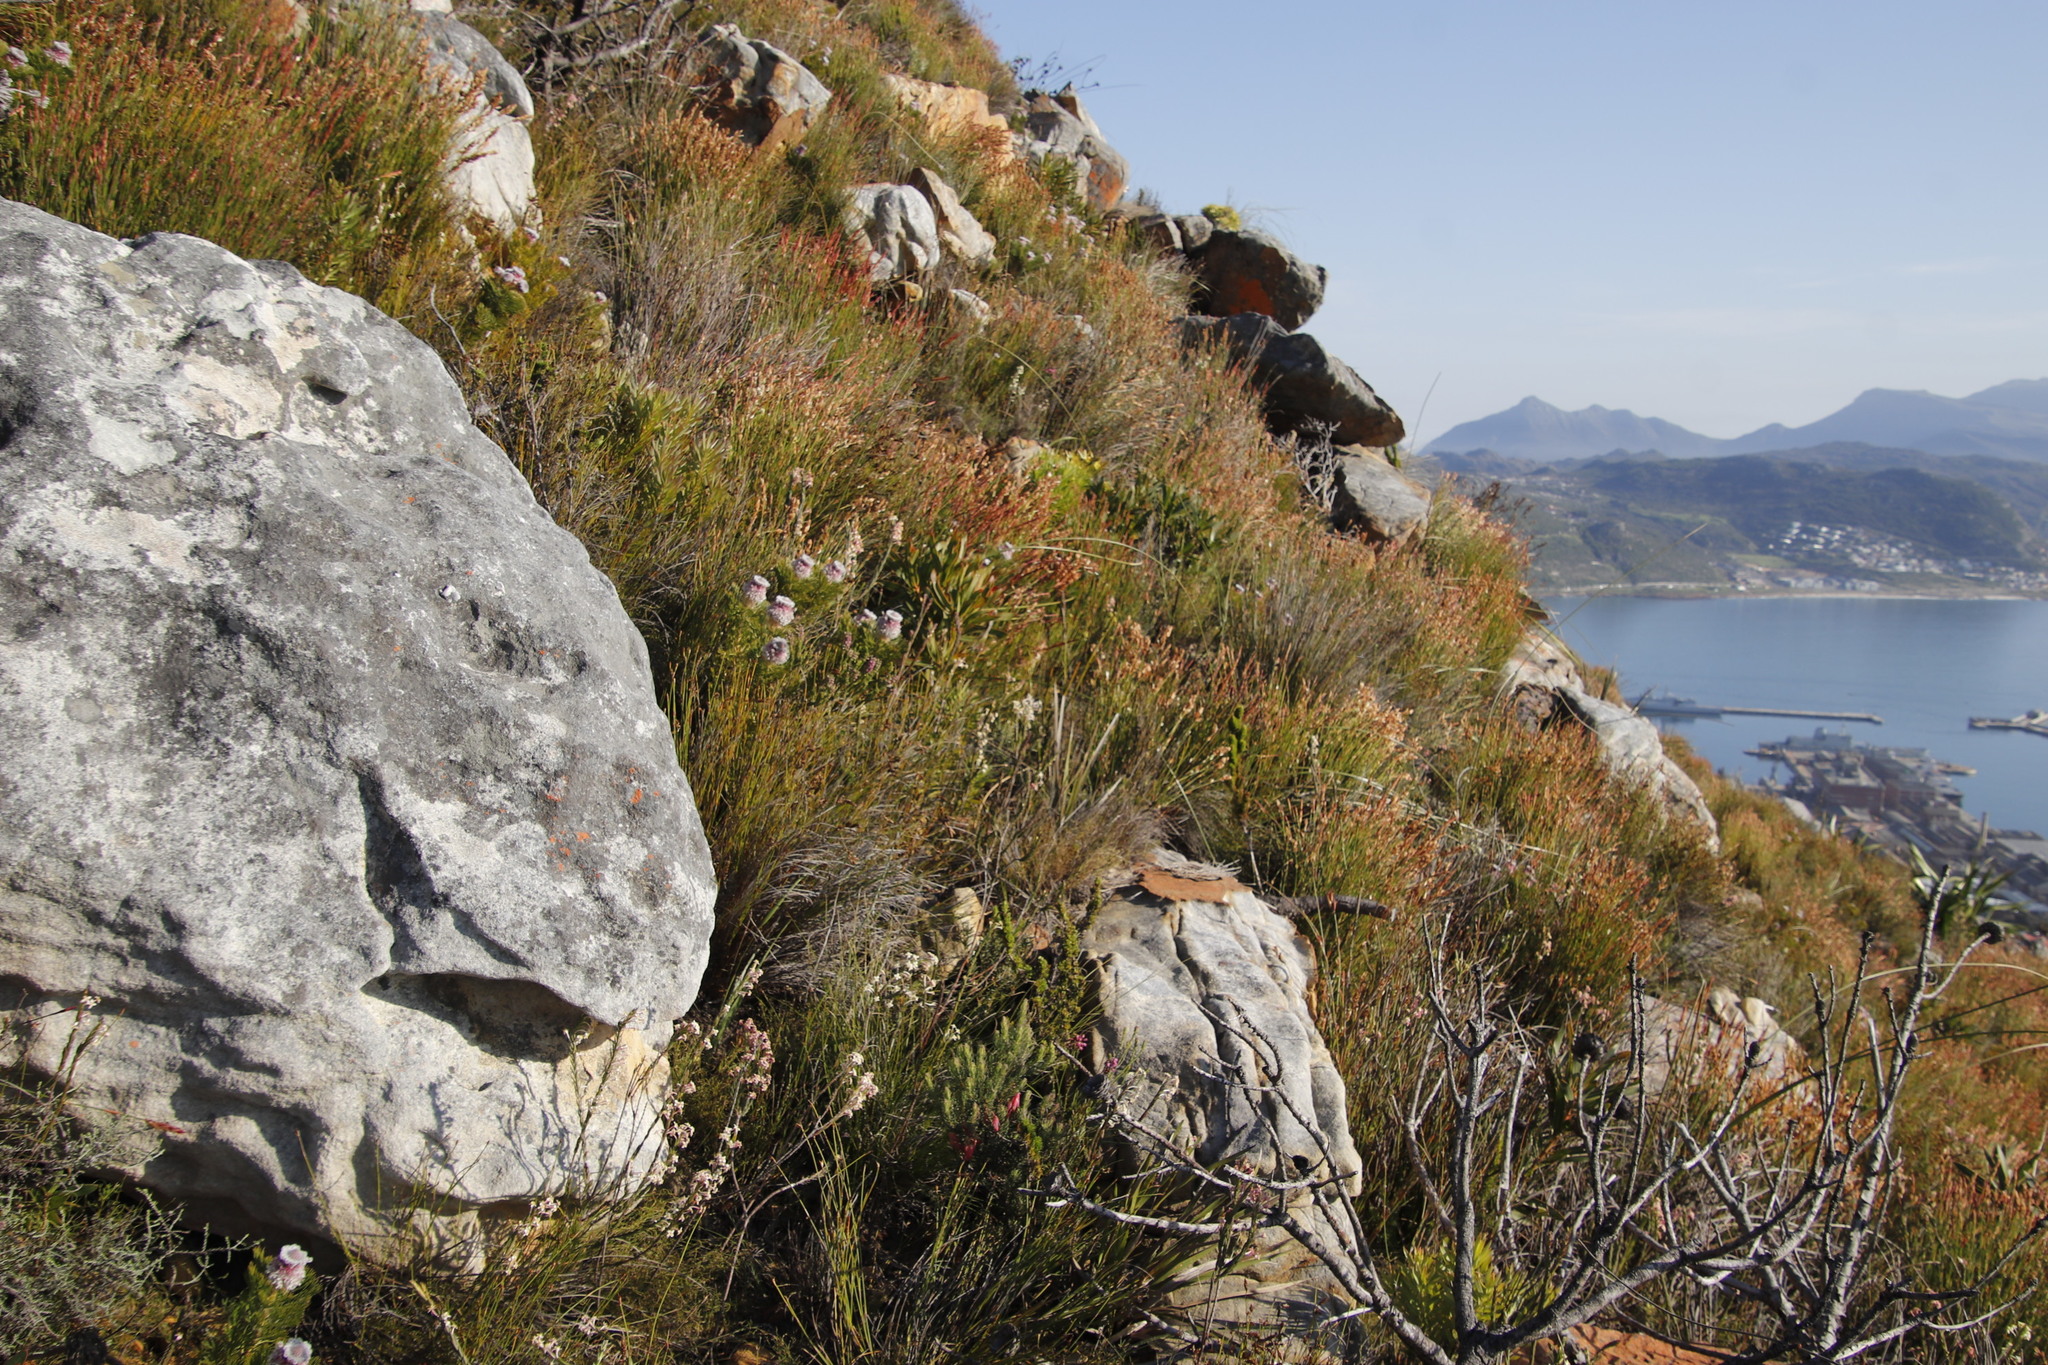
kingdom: Plantae
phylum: Tracheophyta
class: Magnoliopsida
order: Proteales
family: Proteaceae
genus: Serruria
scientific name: Serruria hirsuta
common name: Swartkops spiderhead
